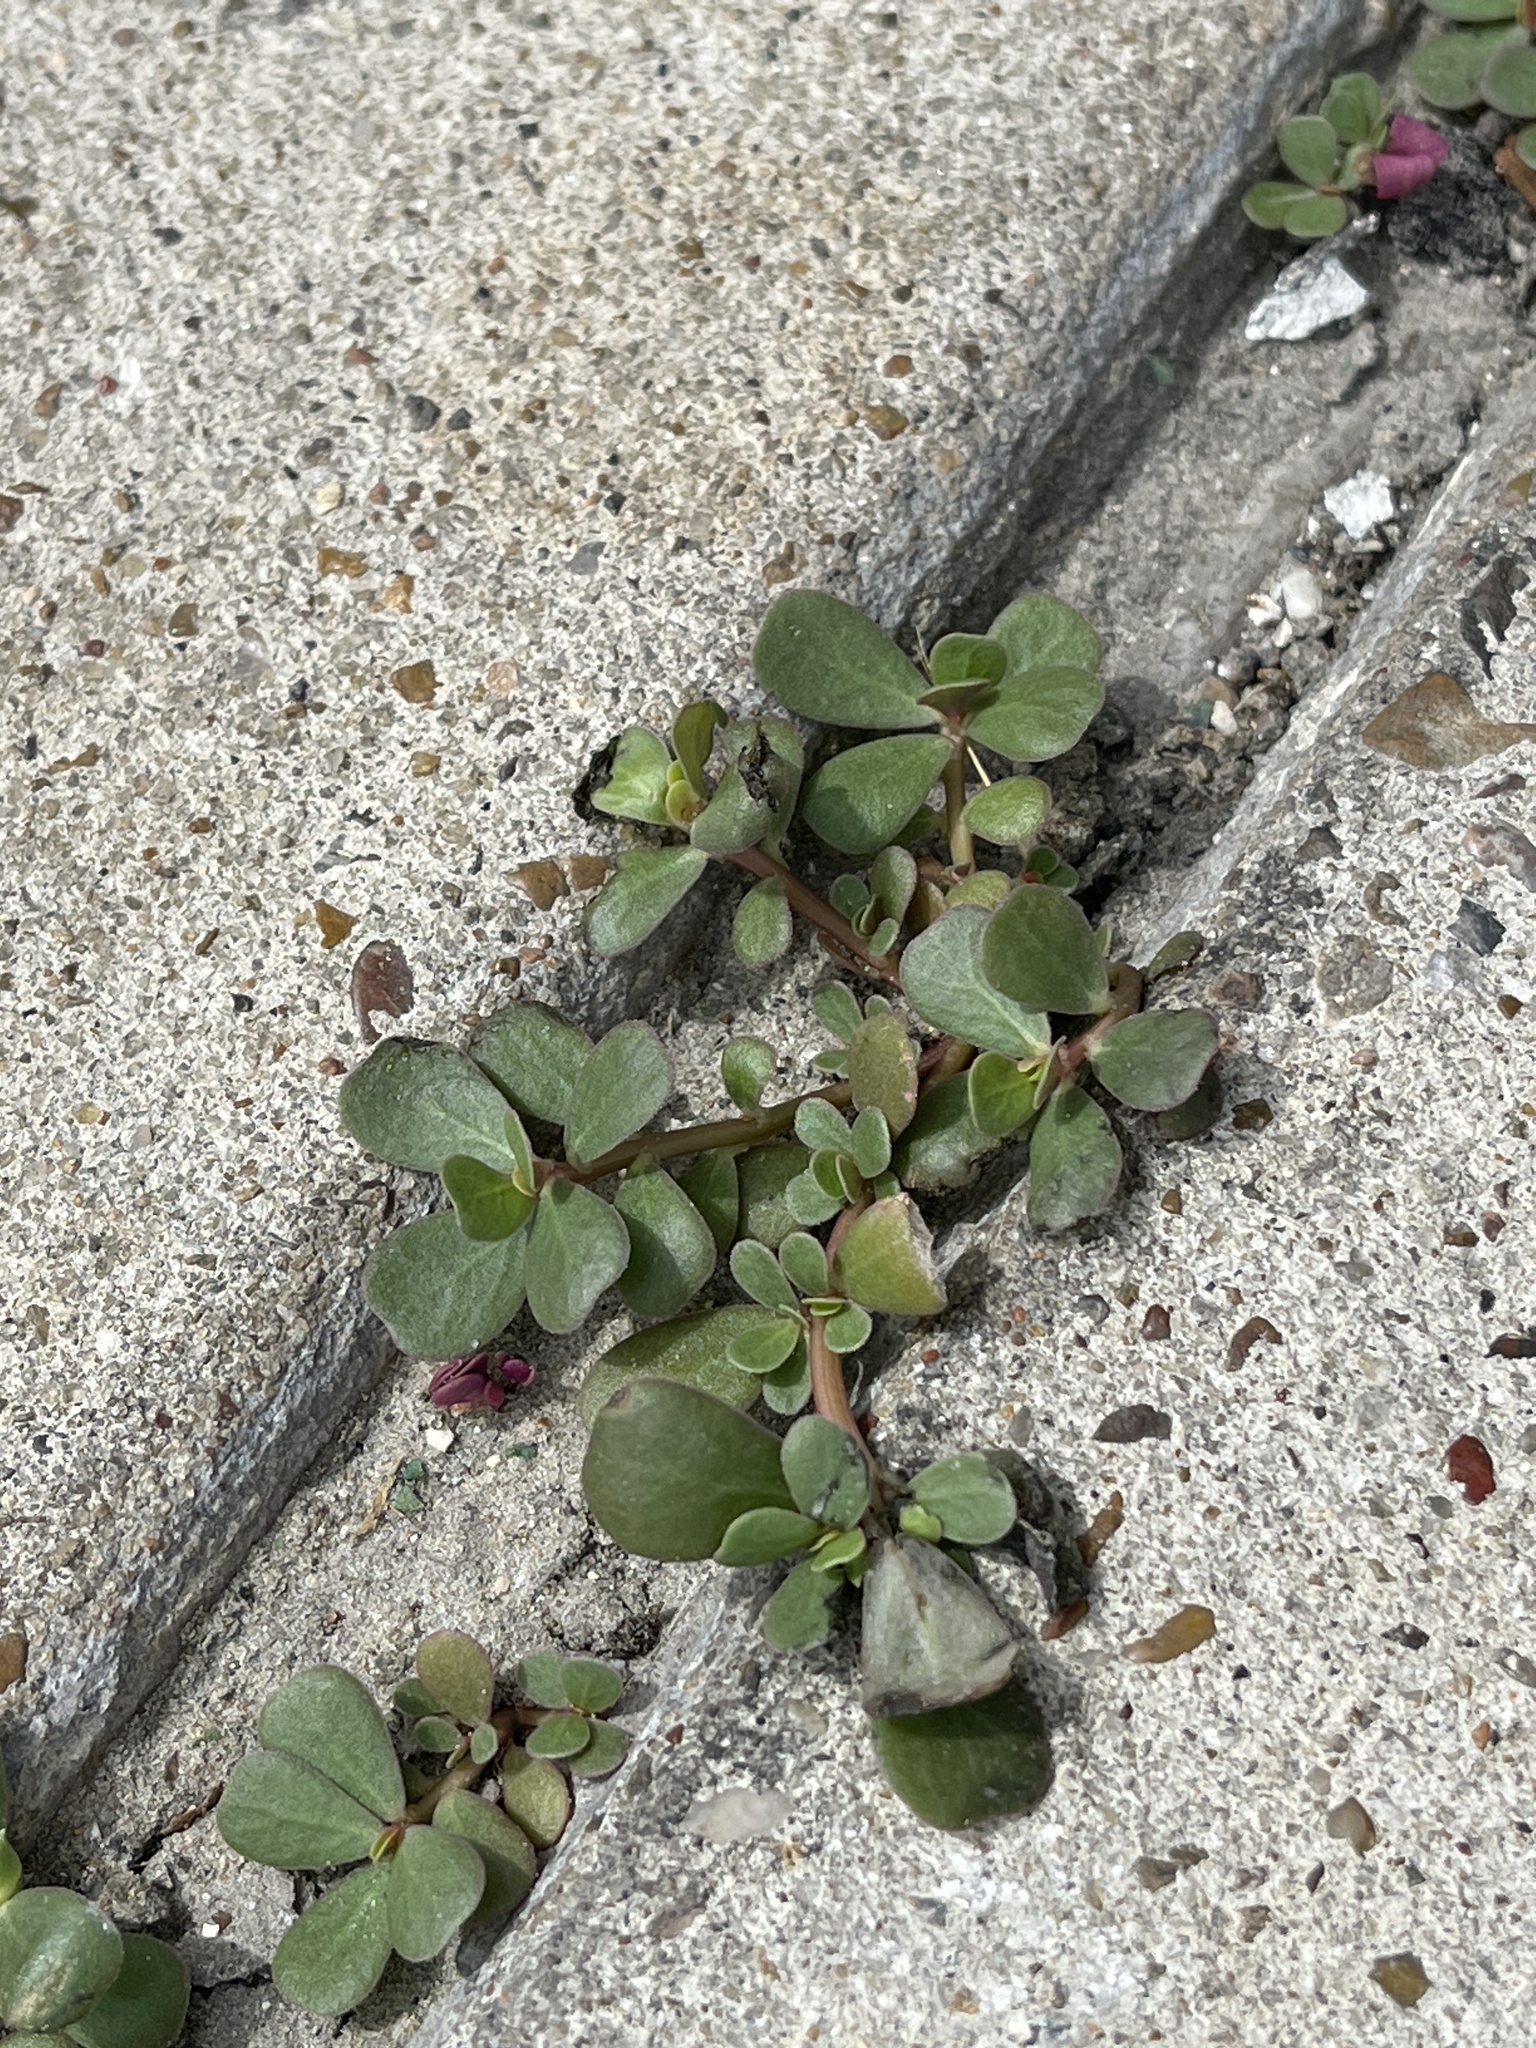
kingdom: Plantae
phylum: Tracheophyta
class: Magnoliopsida
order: Caryophyllales
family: Portulacaceae
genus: Portulaca
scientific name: Portulaca oleracea
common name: Common purslane
